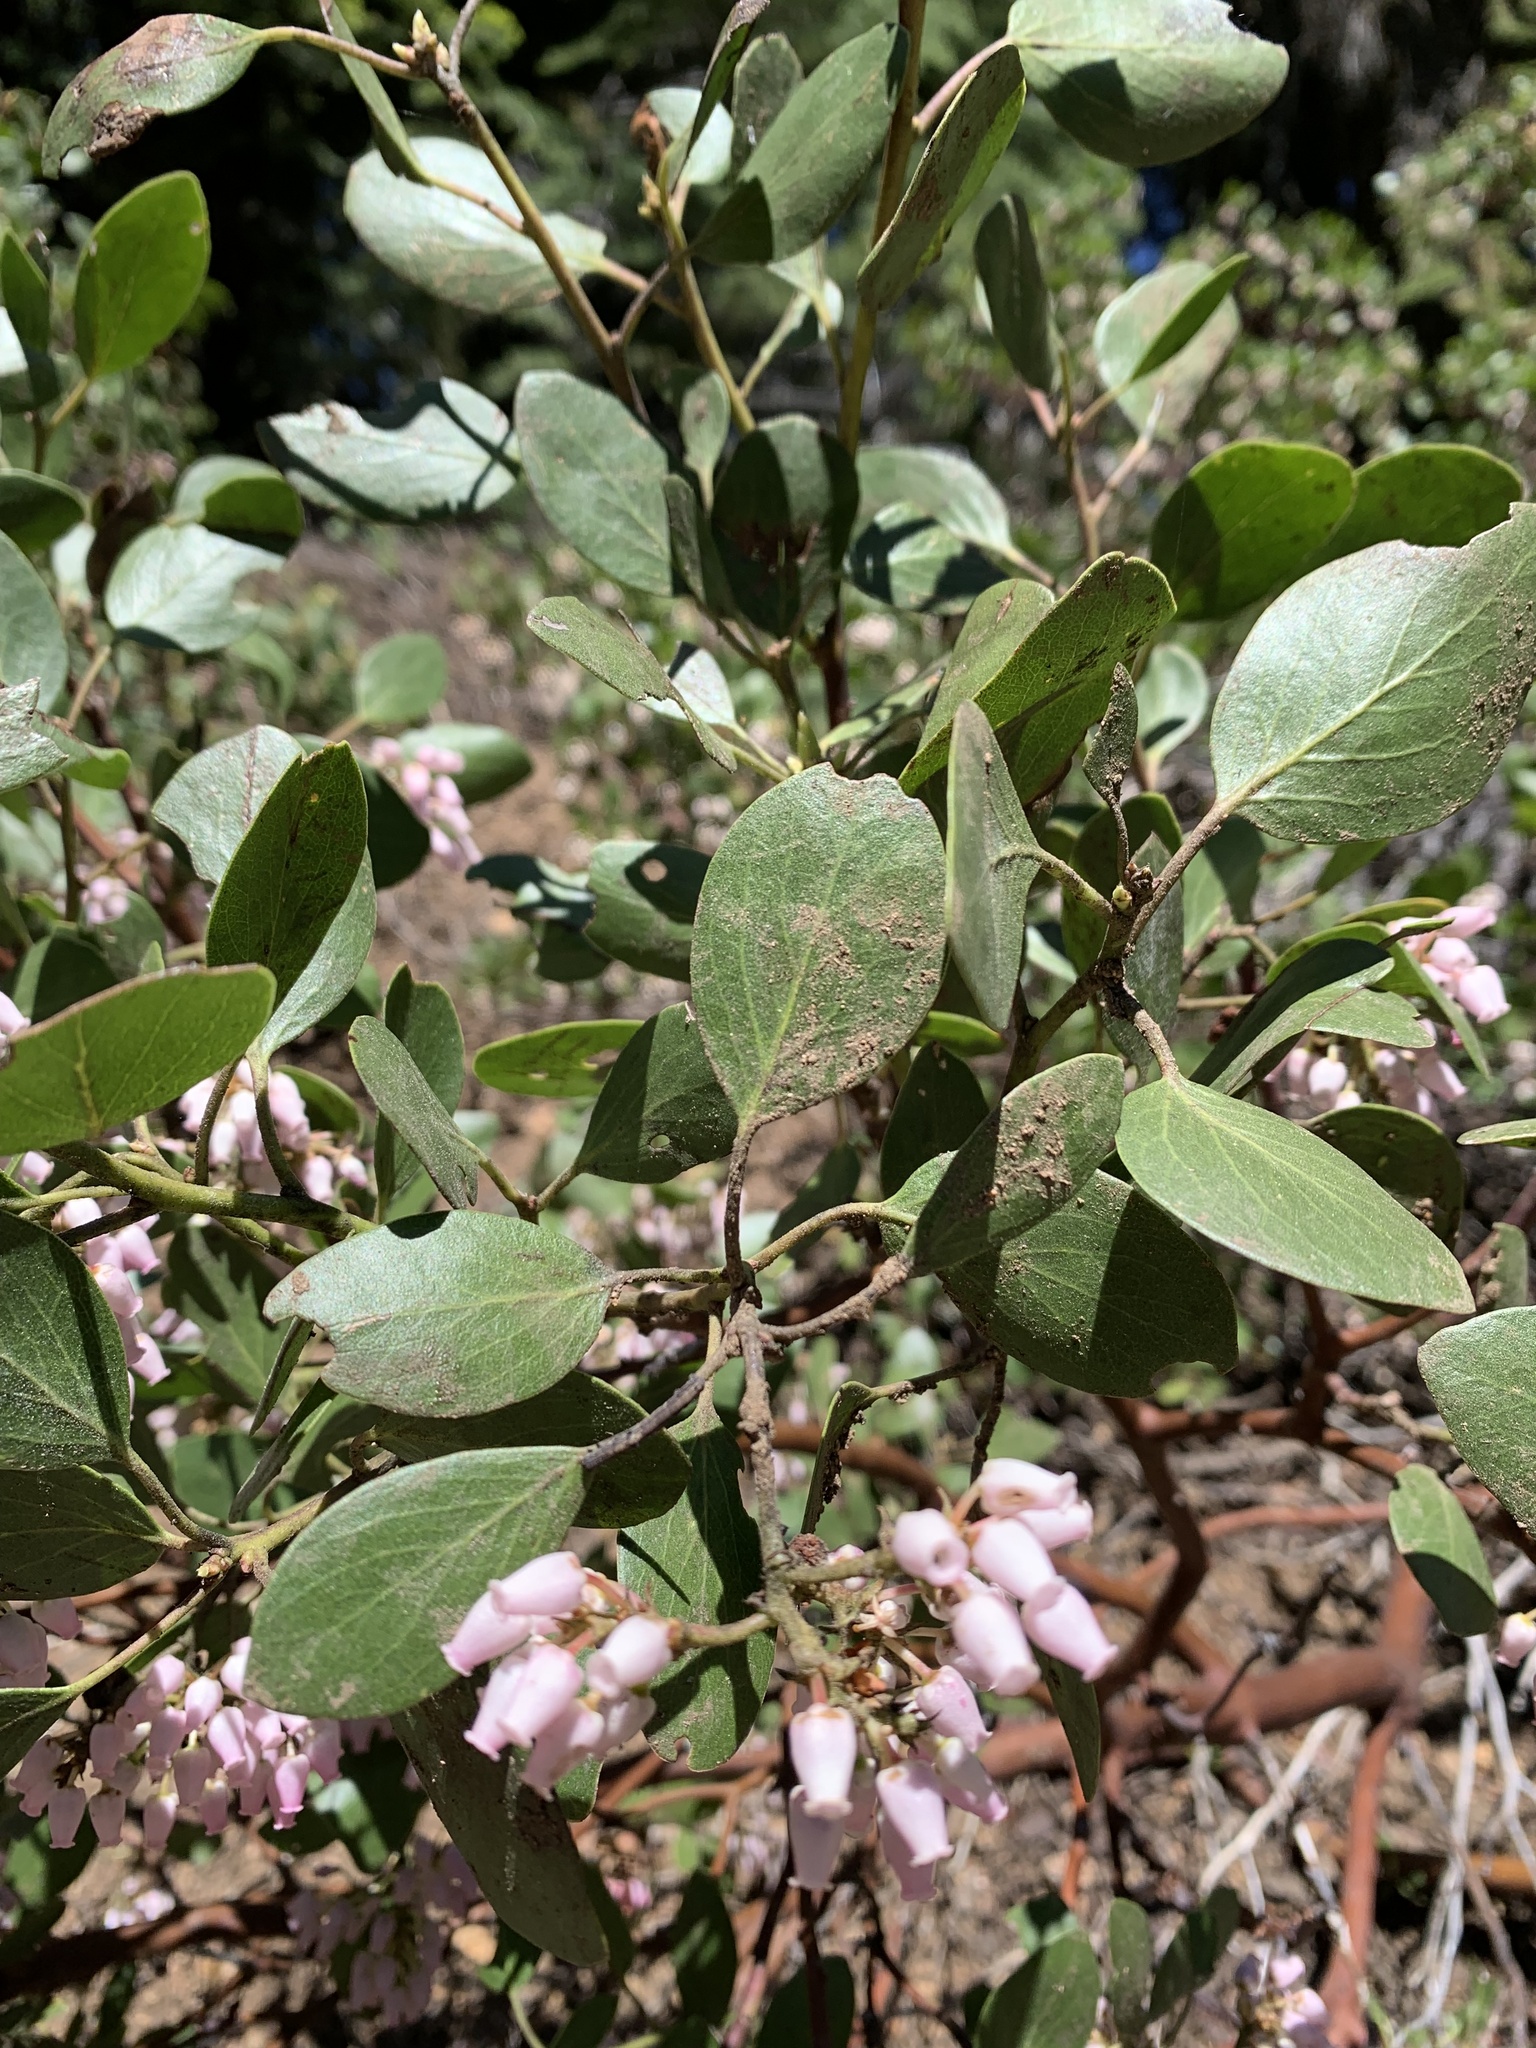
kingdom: Plantae
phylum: Tracheophyta
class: Magnoliopsida
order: Ericales
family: Ericaceae
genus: Arctostaphylos
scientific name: Arctostaphylos patula
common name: Green-leaf manzanita
